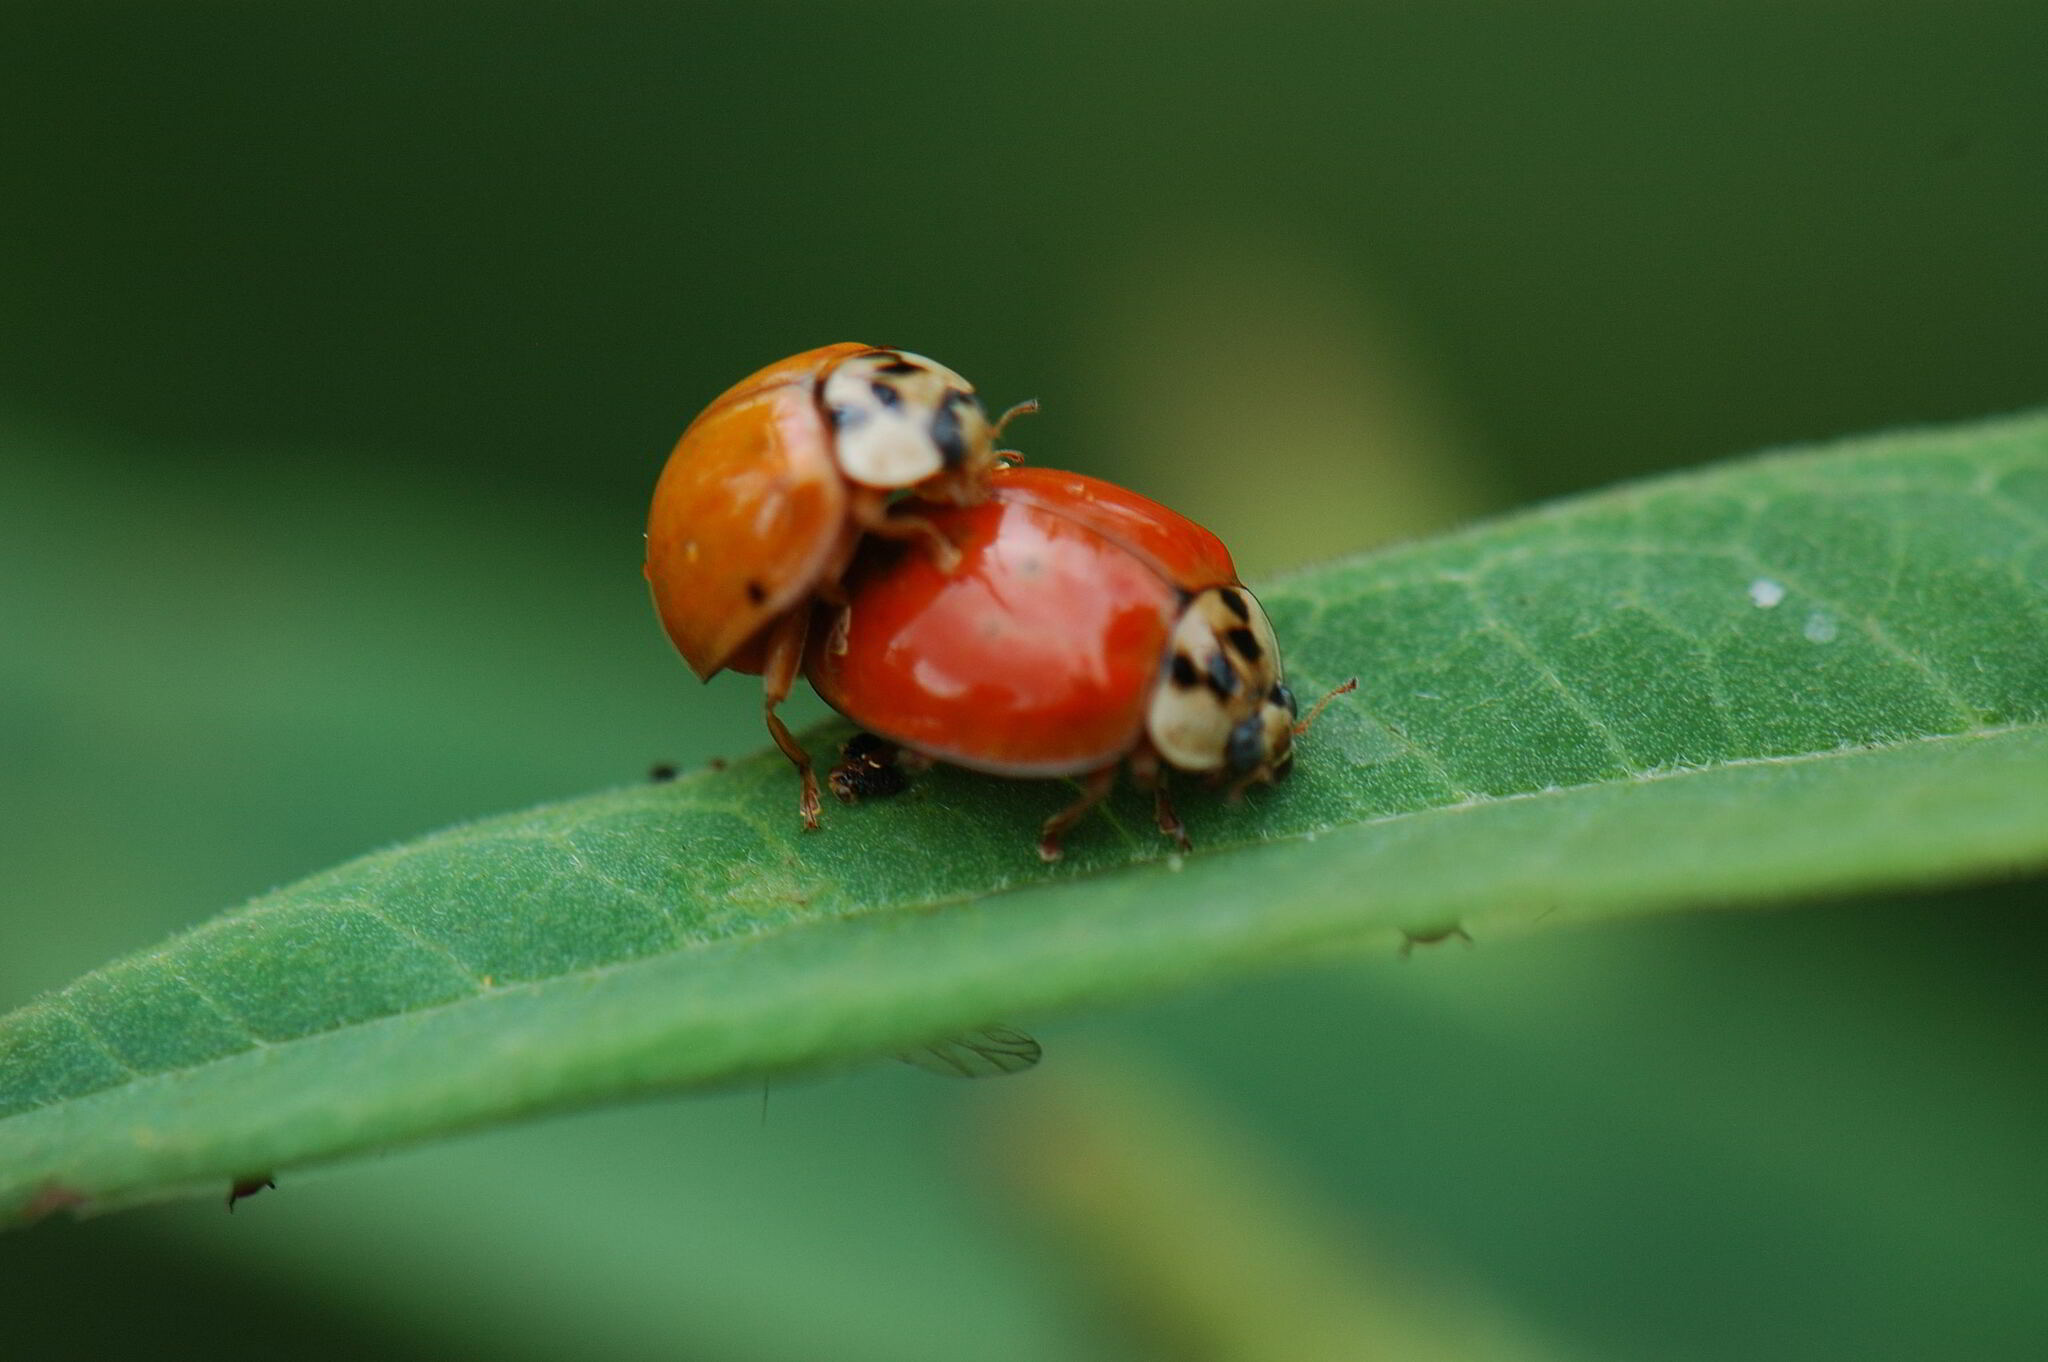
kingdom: Animalia
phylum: Arthropoda
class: Insecta
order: Coleoptera
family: Coccinellidae
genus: Harmonia
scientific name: Harmonia axyridis
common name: Harlequin ladybird
